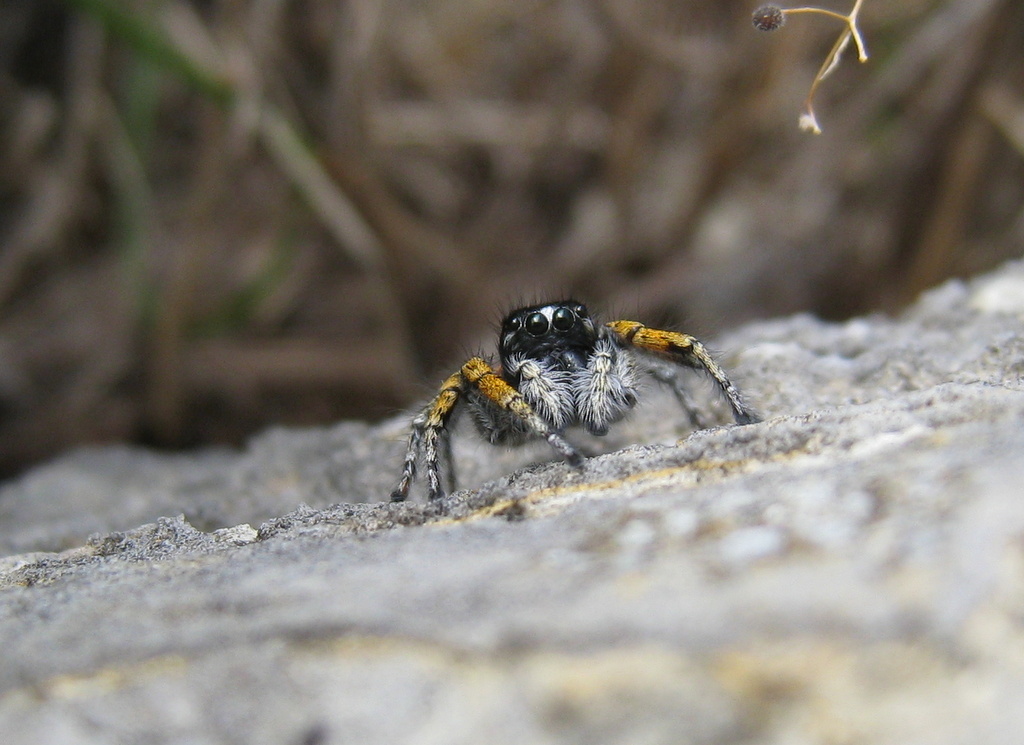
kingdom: Animalia
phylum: Arthropoda
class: Arachnida
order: Araneae
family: Salticidae
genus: Philaeus
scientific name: Philaeus chrysops
